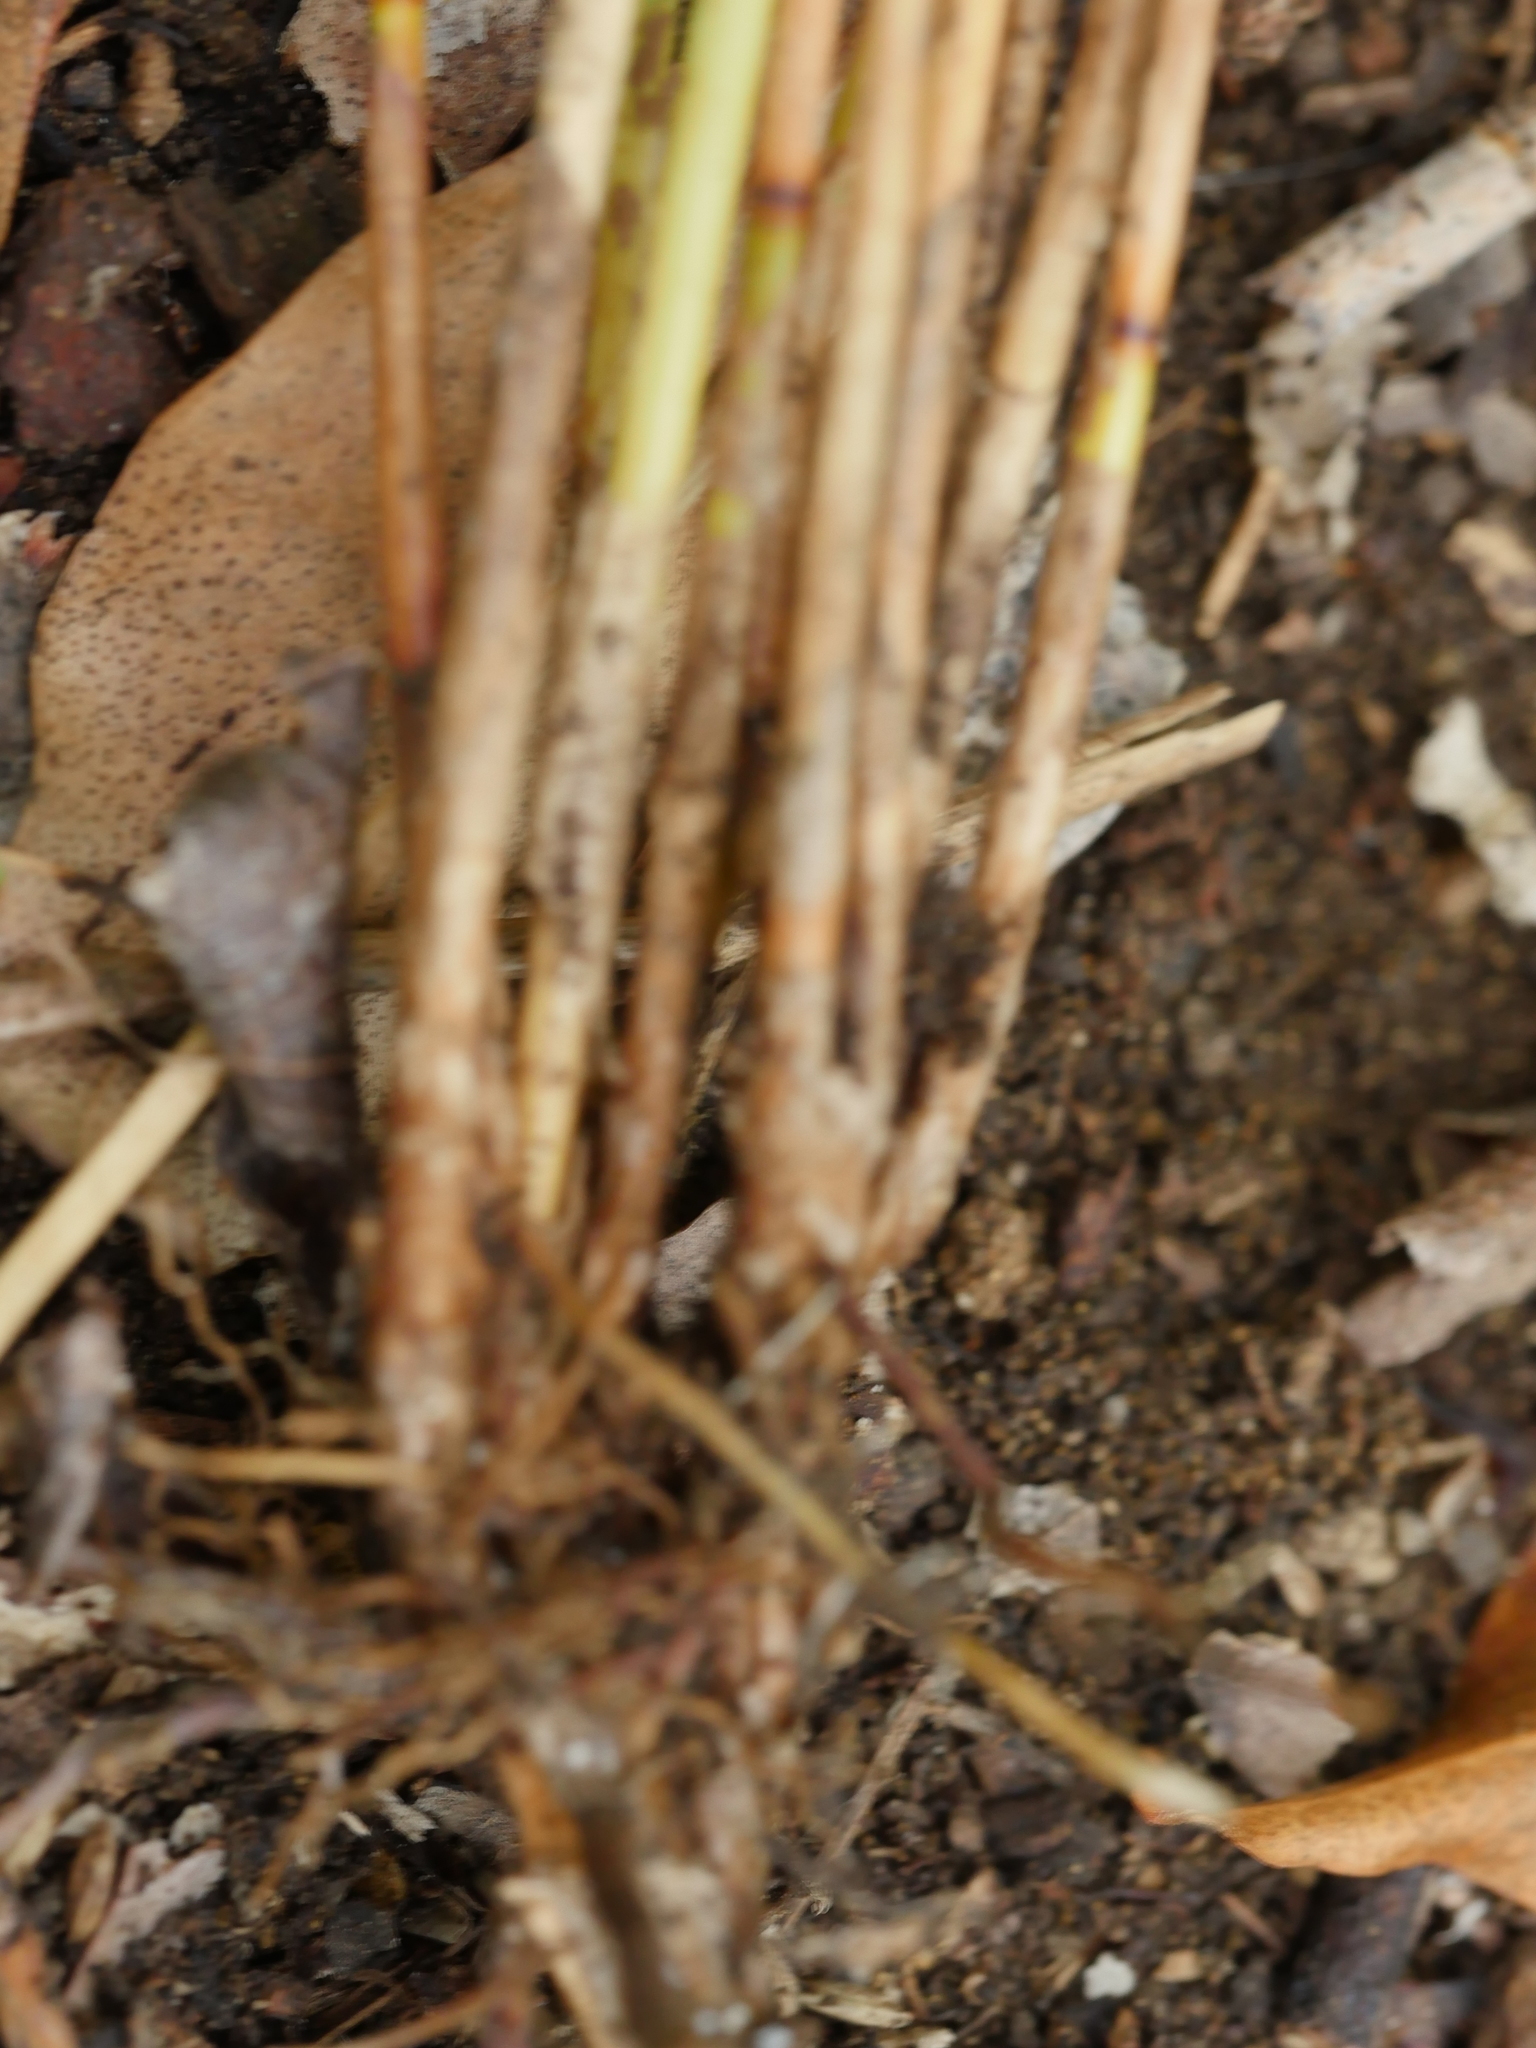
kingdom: Plantae
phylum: Tracheophyta
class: Liliopsida
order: Poales
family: Cyperaceae
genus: Machaerina
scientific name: Machaerina juncea
